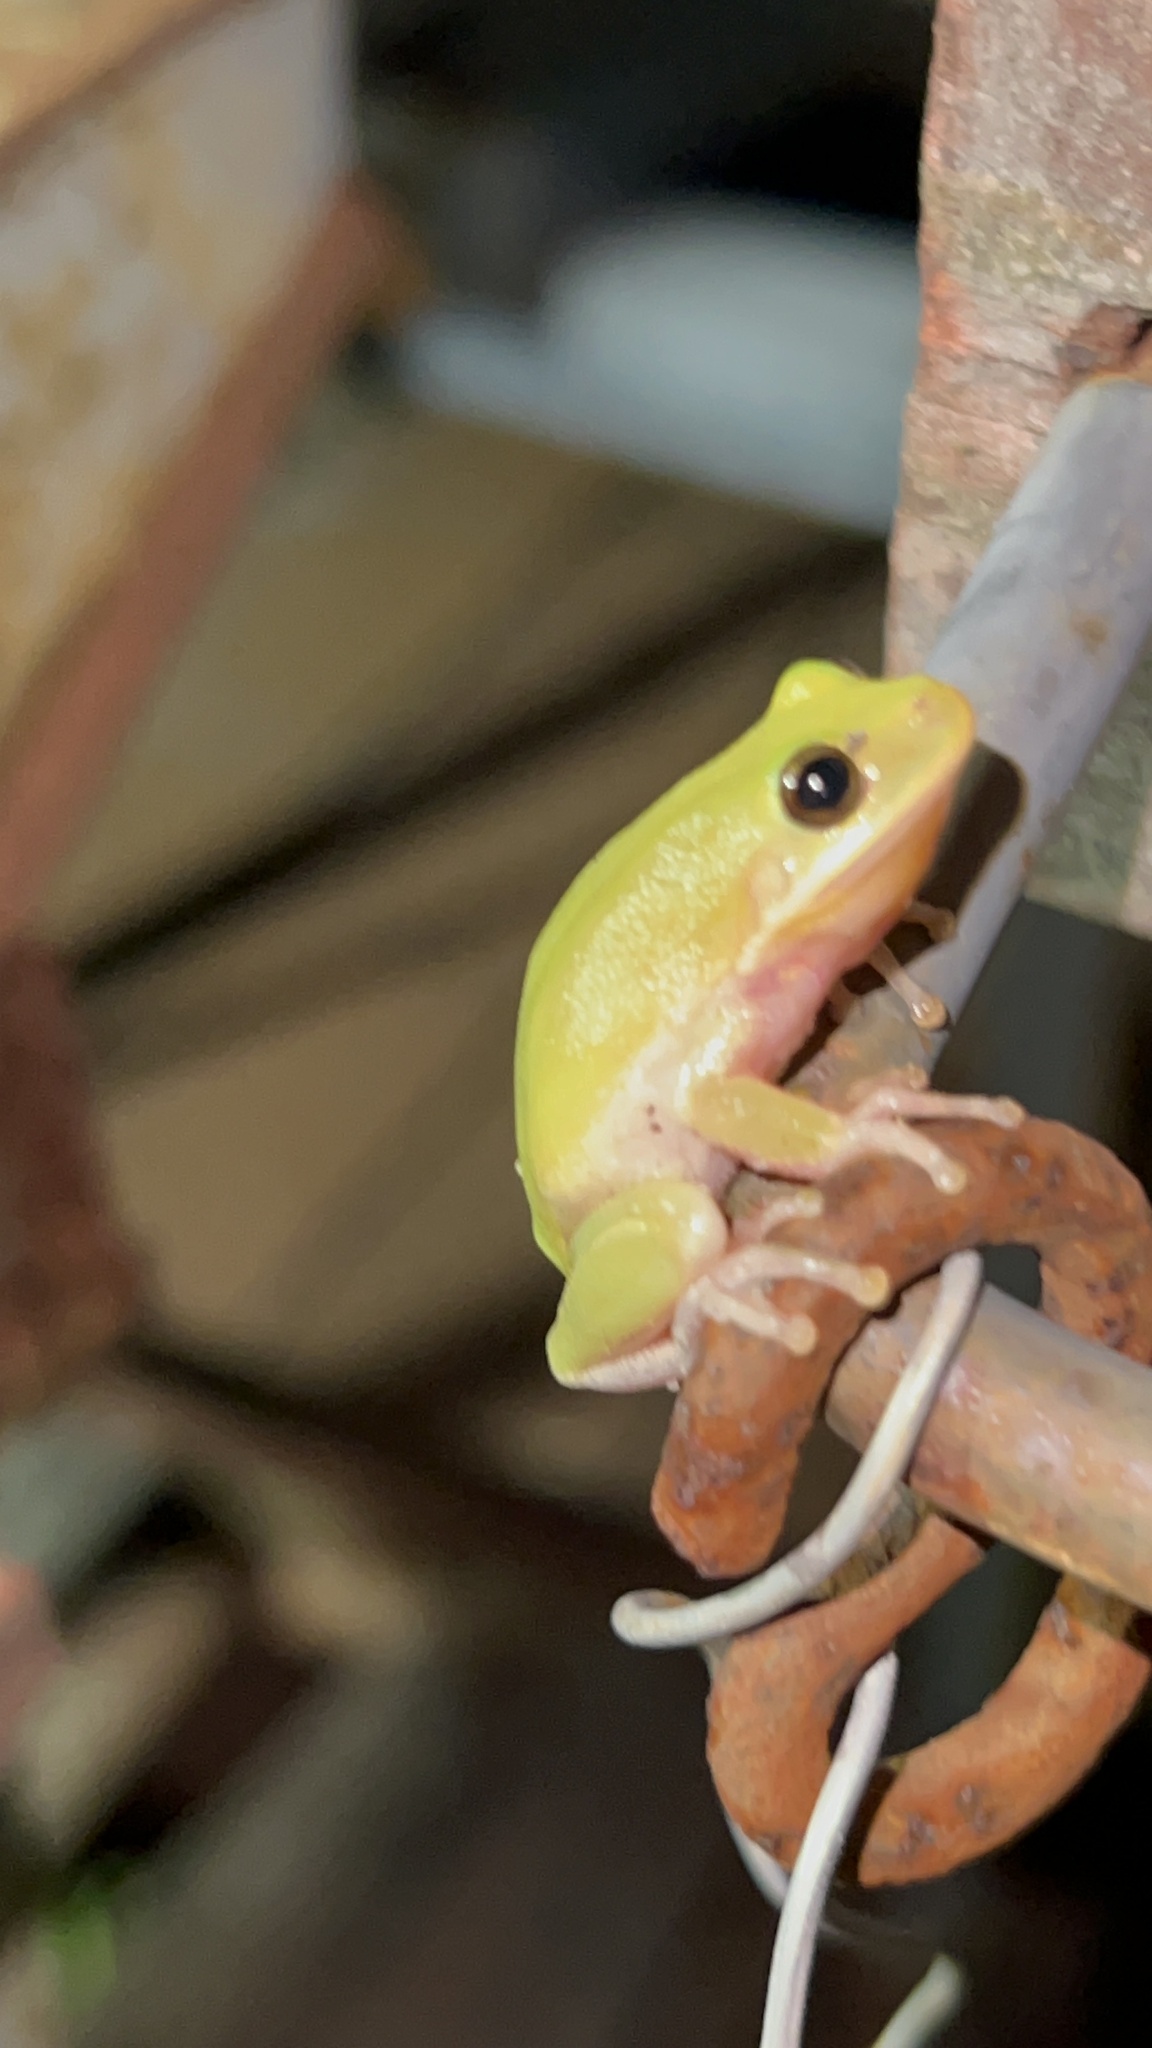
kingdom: Animalia
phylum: Chordata
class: Amphibia
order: Anura
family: Hylidae
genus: Dryophytes
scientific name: Dryophytes squirellus
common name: Squirrel treefrog
